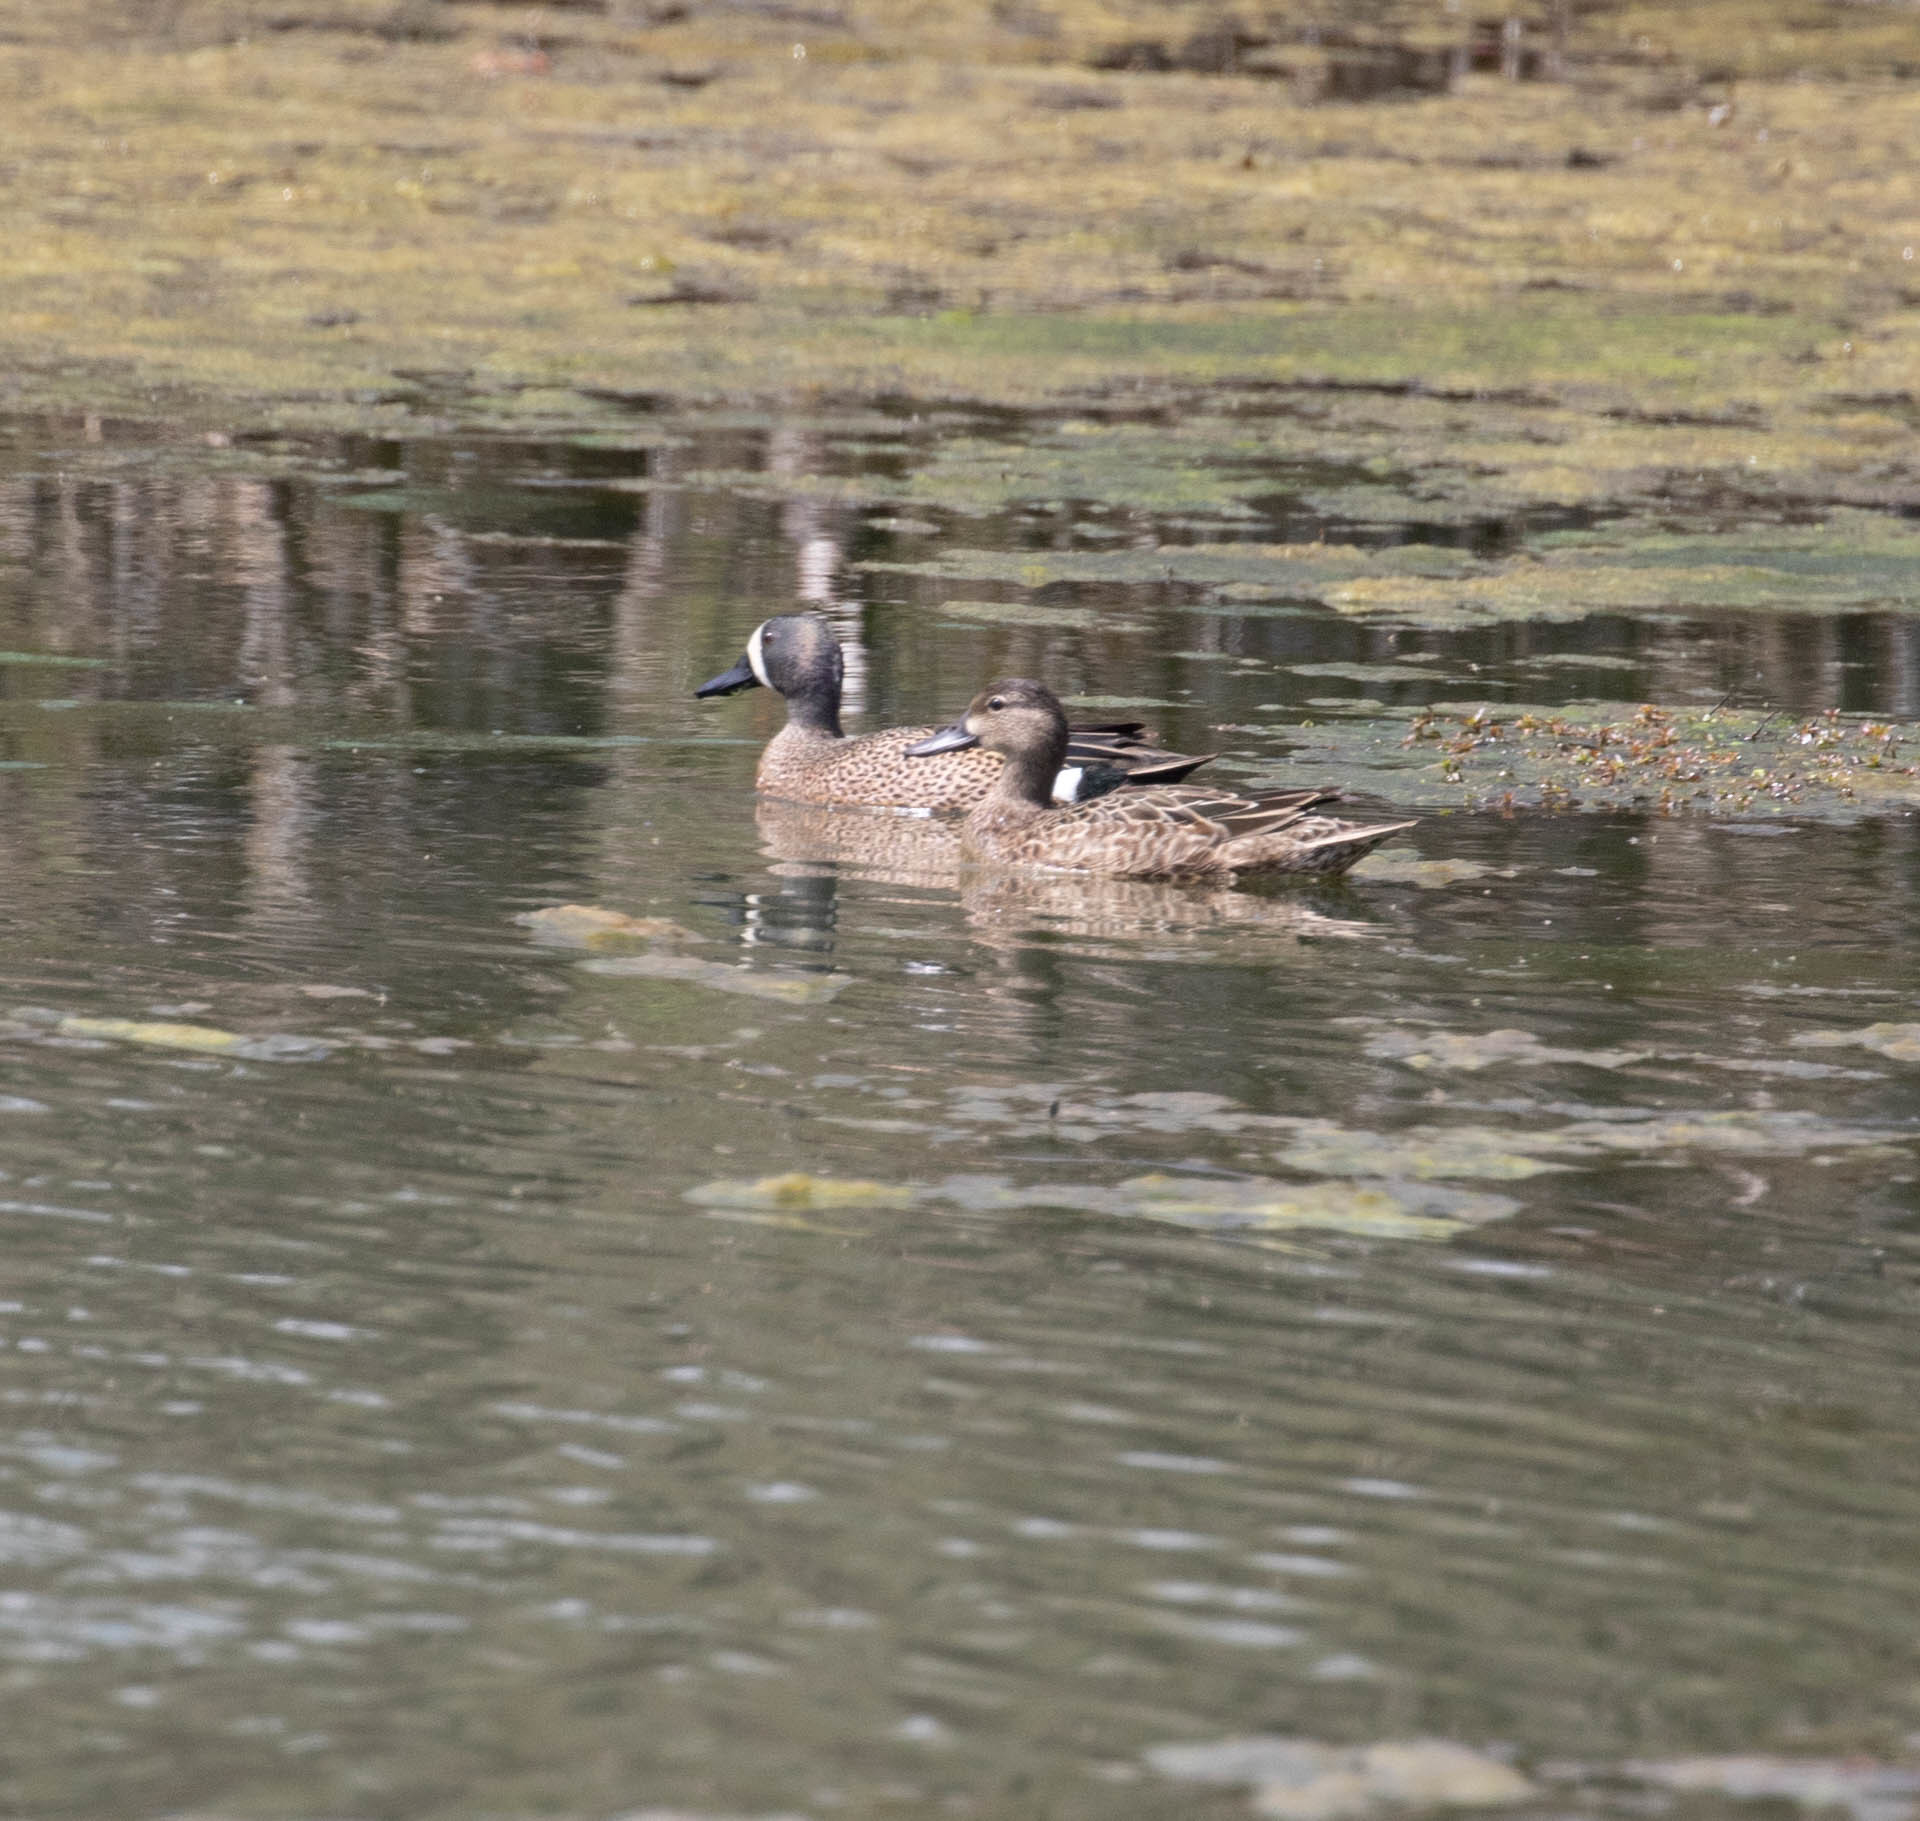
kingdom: Animalia
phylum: Chordata
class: Aves
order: Anseriformes
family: Anatidae
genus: Spatula
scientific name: Spatula discors
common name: Blue-winged teal
